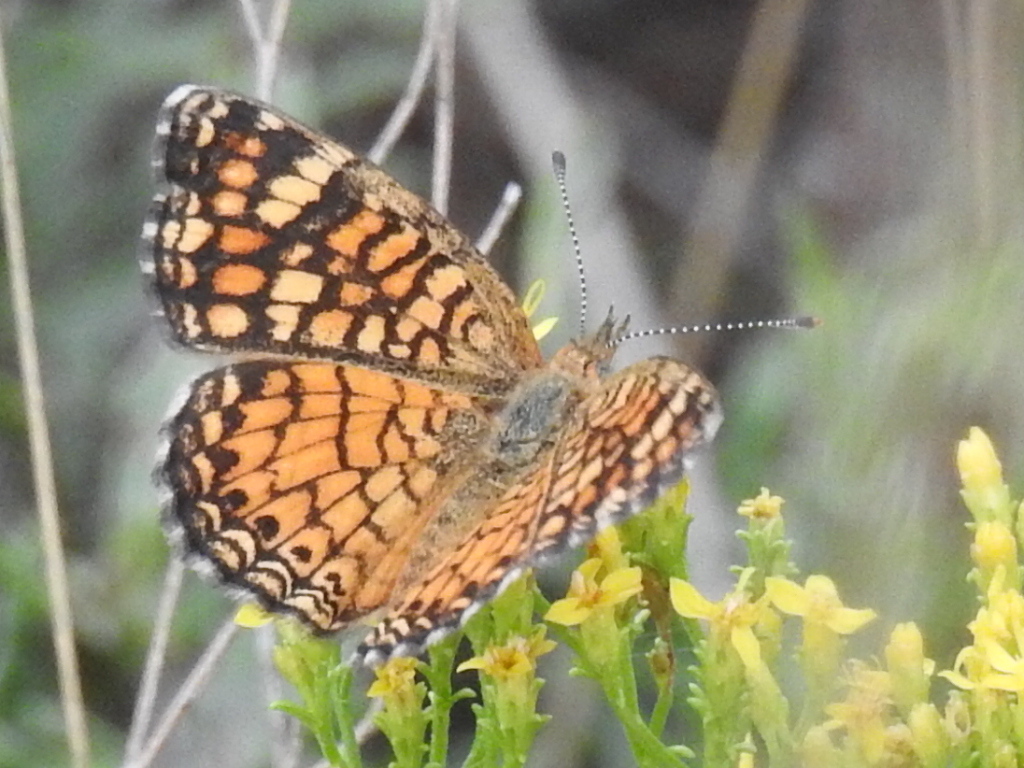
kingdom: Animalia
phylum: Arthropoda
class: Insecta
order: Lepidoptera
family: Nymphalidae
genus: Phyciodes
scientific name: Phyciodes vesta
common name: Vesta crescent
